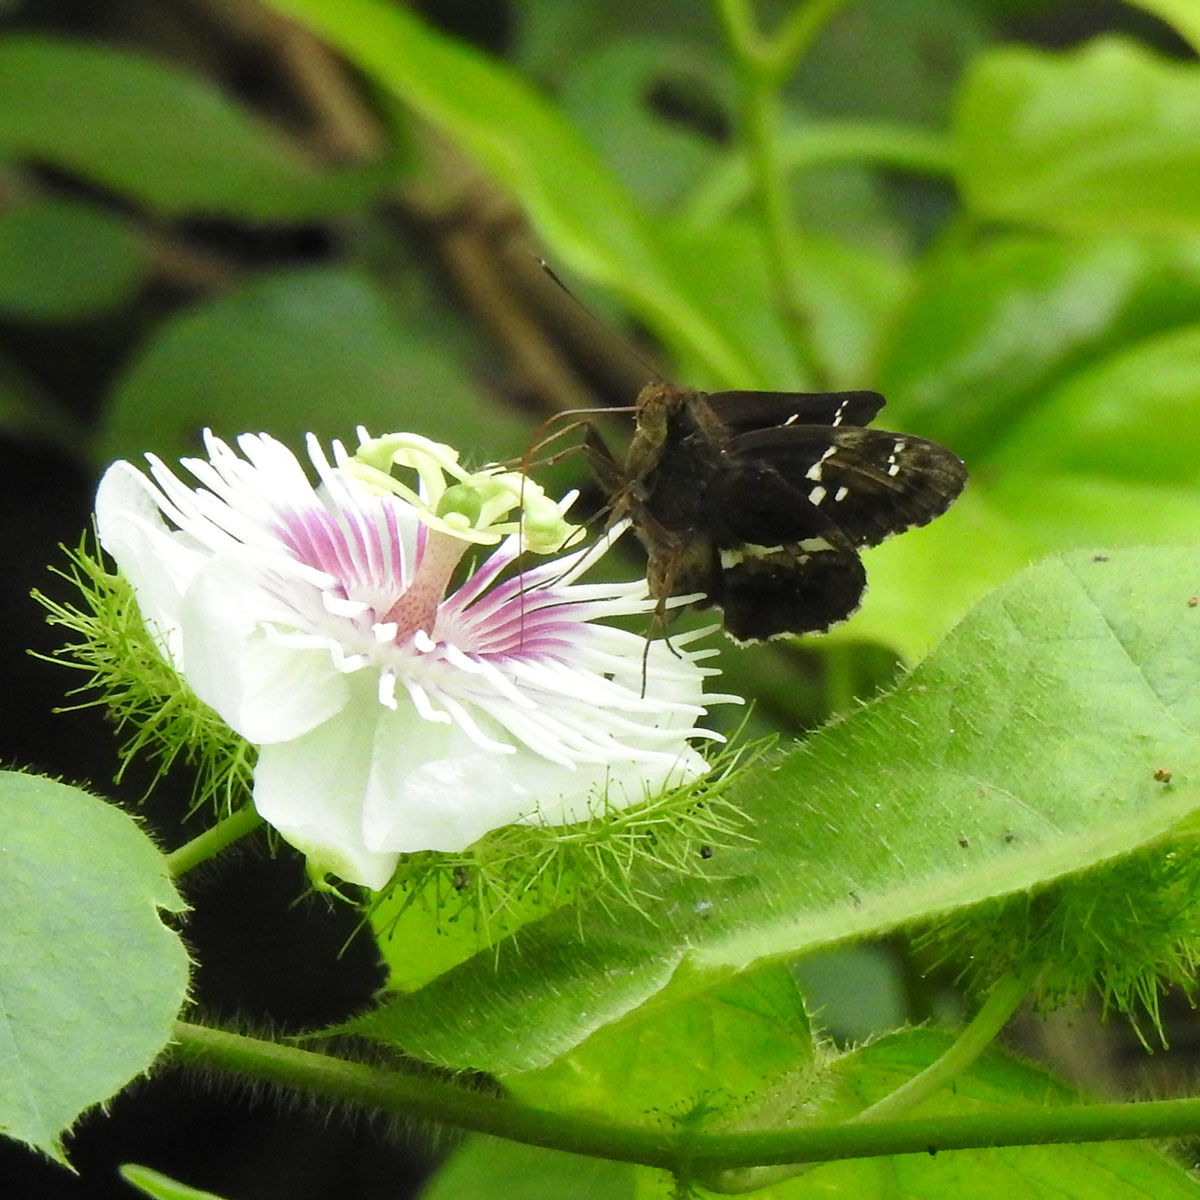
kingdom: Animalia
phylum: Arthropoda
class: Insecta
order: Lepidoptera
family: Hesperiidae
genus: Hyarotis
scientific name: Hyarotis adrastus
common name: Tree flitter
